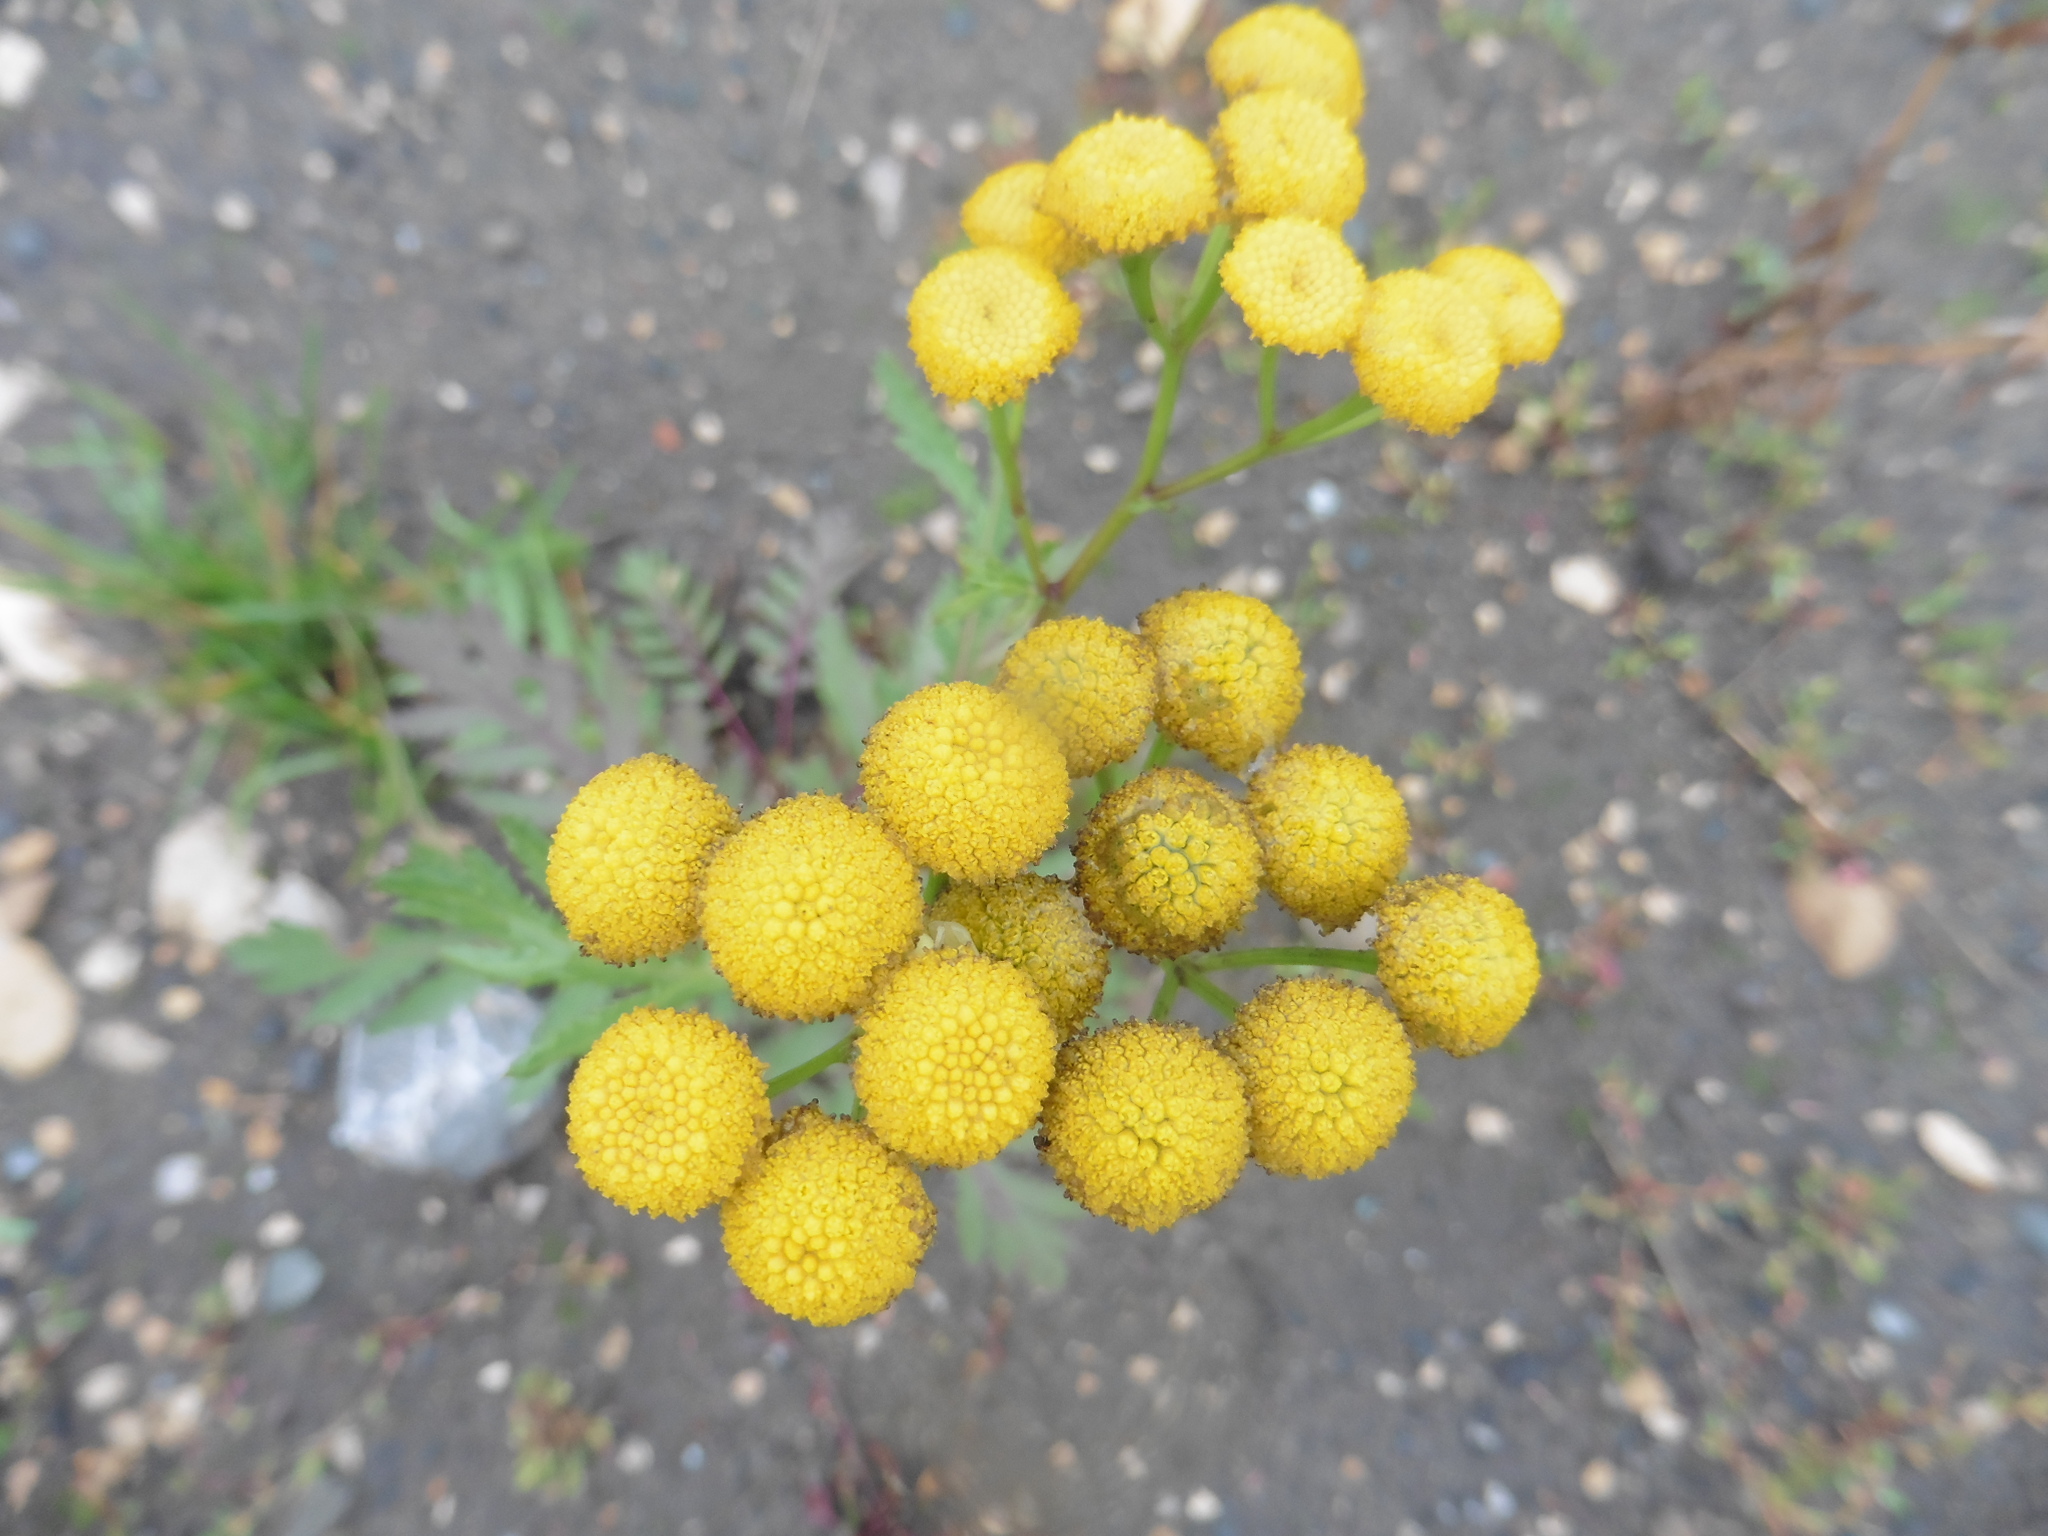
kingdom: Plantae
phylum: Tracheophyta
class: Magnoliopsida
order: Asterales
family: Asteraceae
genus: Tanacetum
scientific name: Tanacetum vulgare
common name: Common tansy
